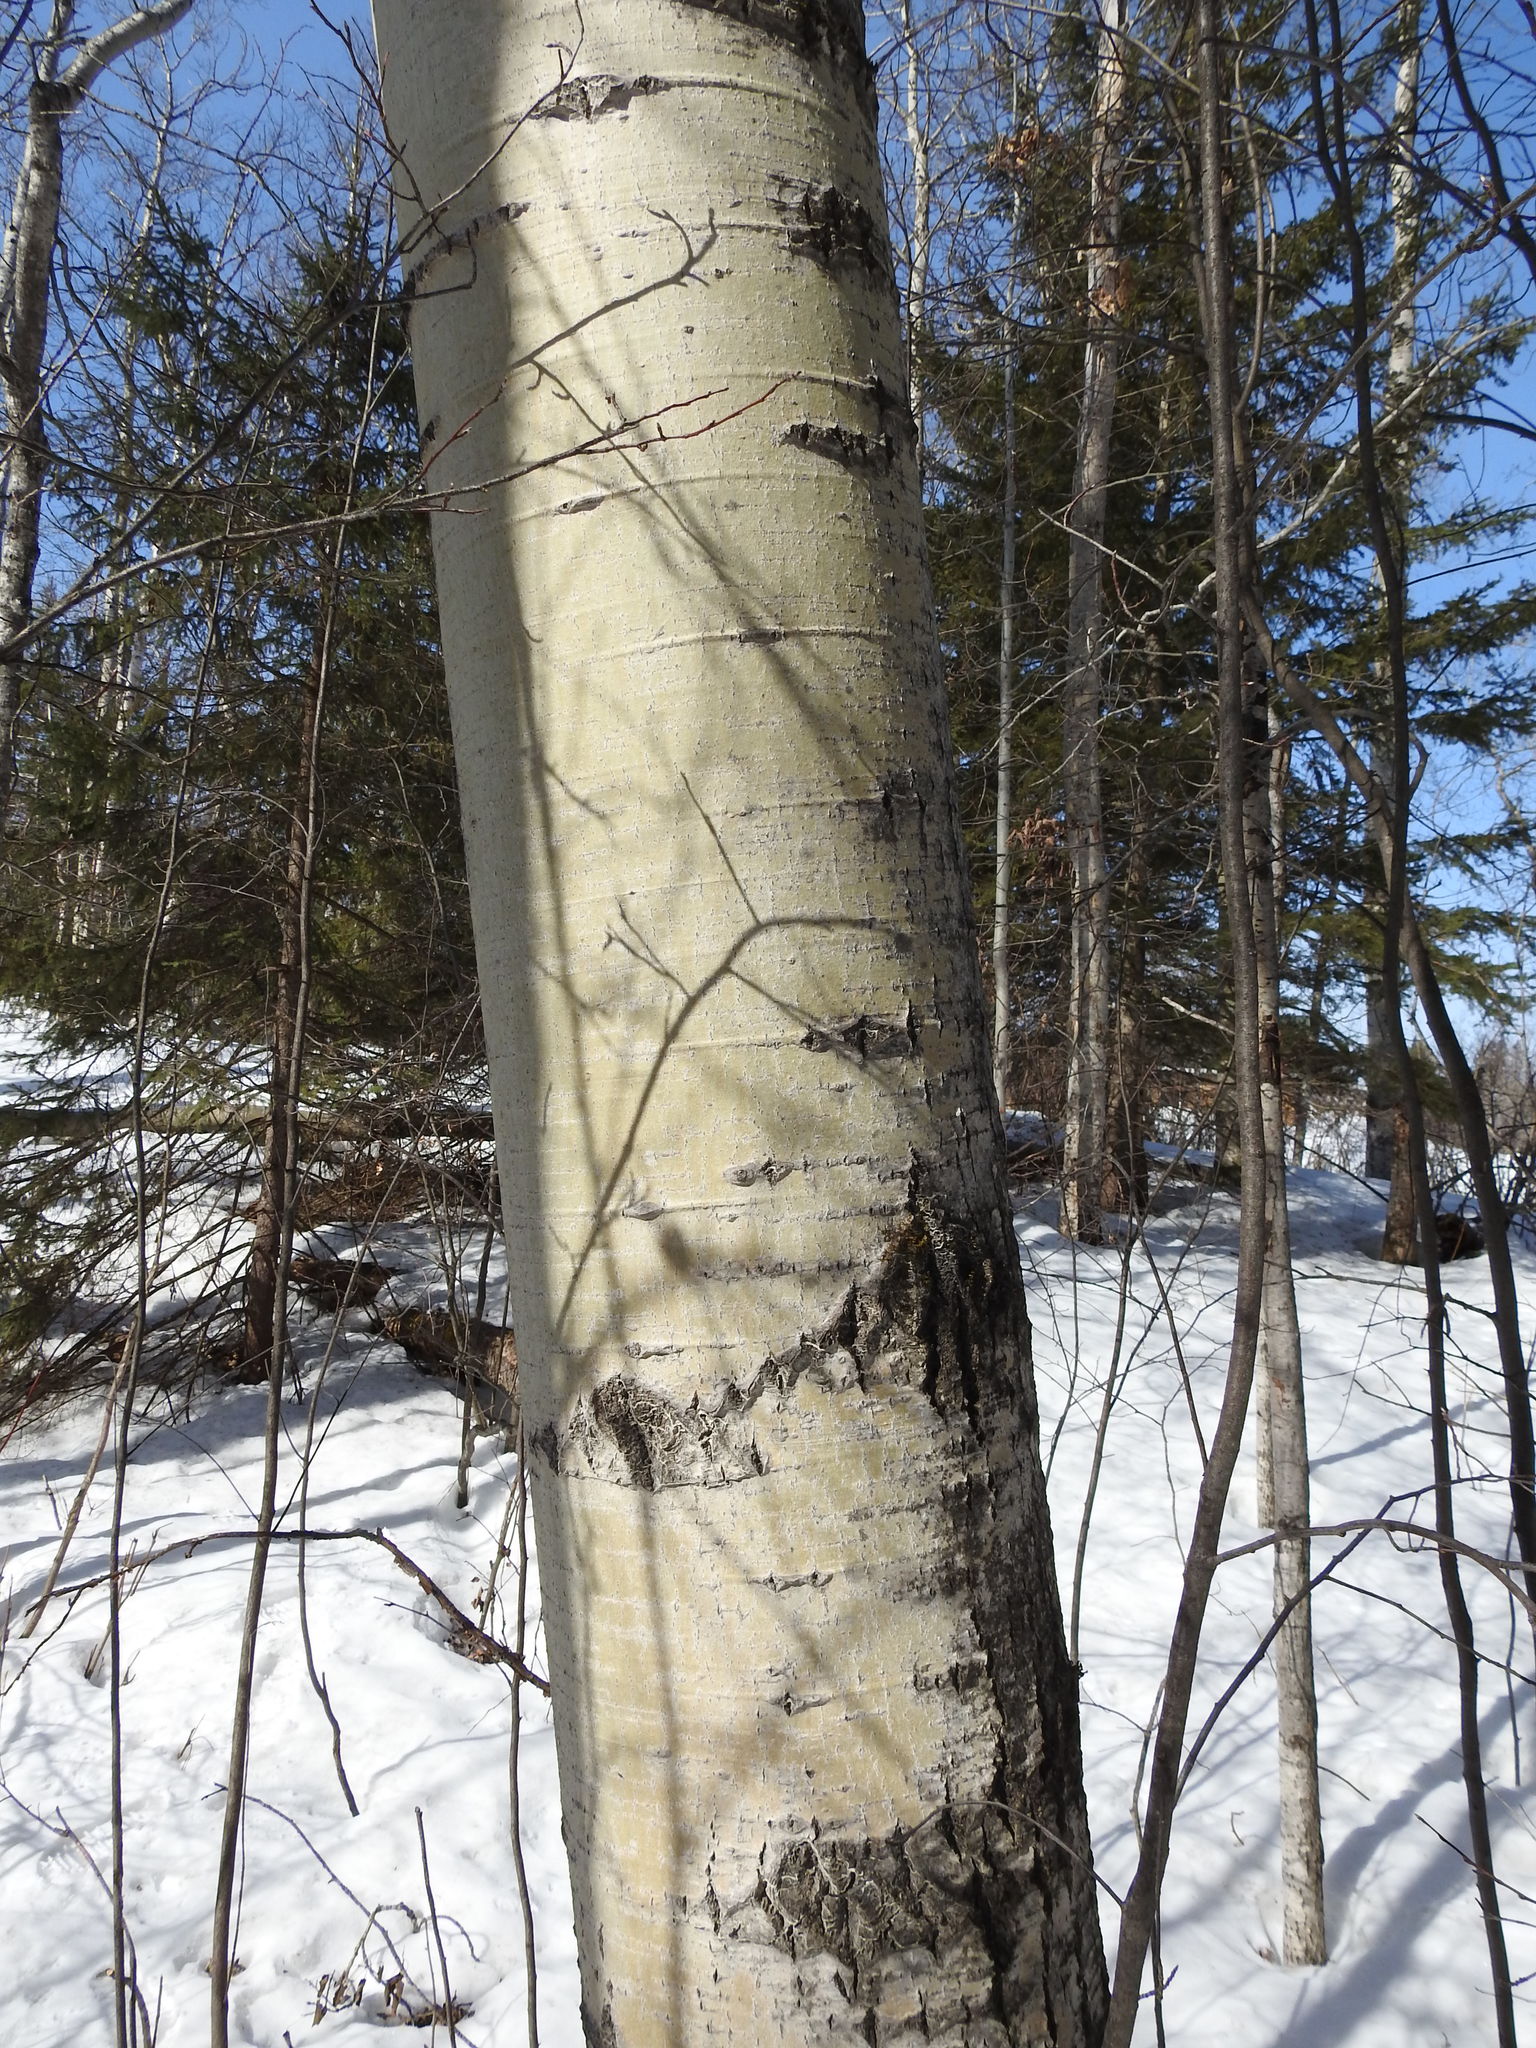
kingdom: Plantae
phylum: Tracheophyta
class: Magnoliopsida
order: Malpighiales
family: Salicaceae
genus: Populus
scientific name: Populus tremuloides
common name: Quaking aspen
